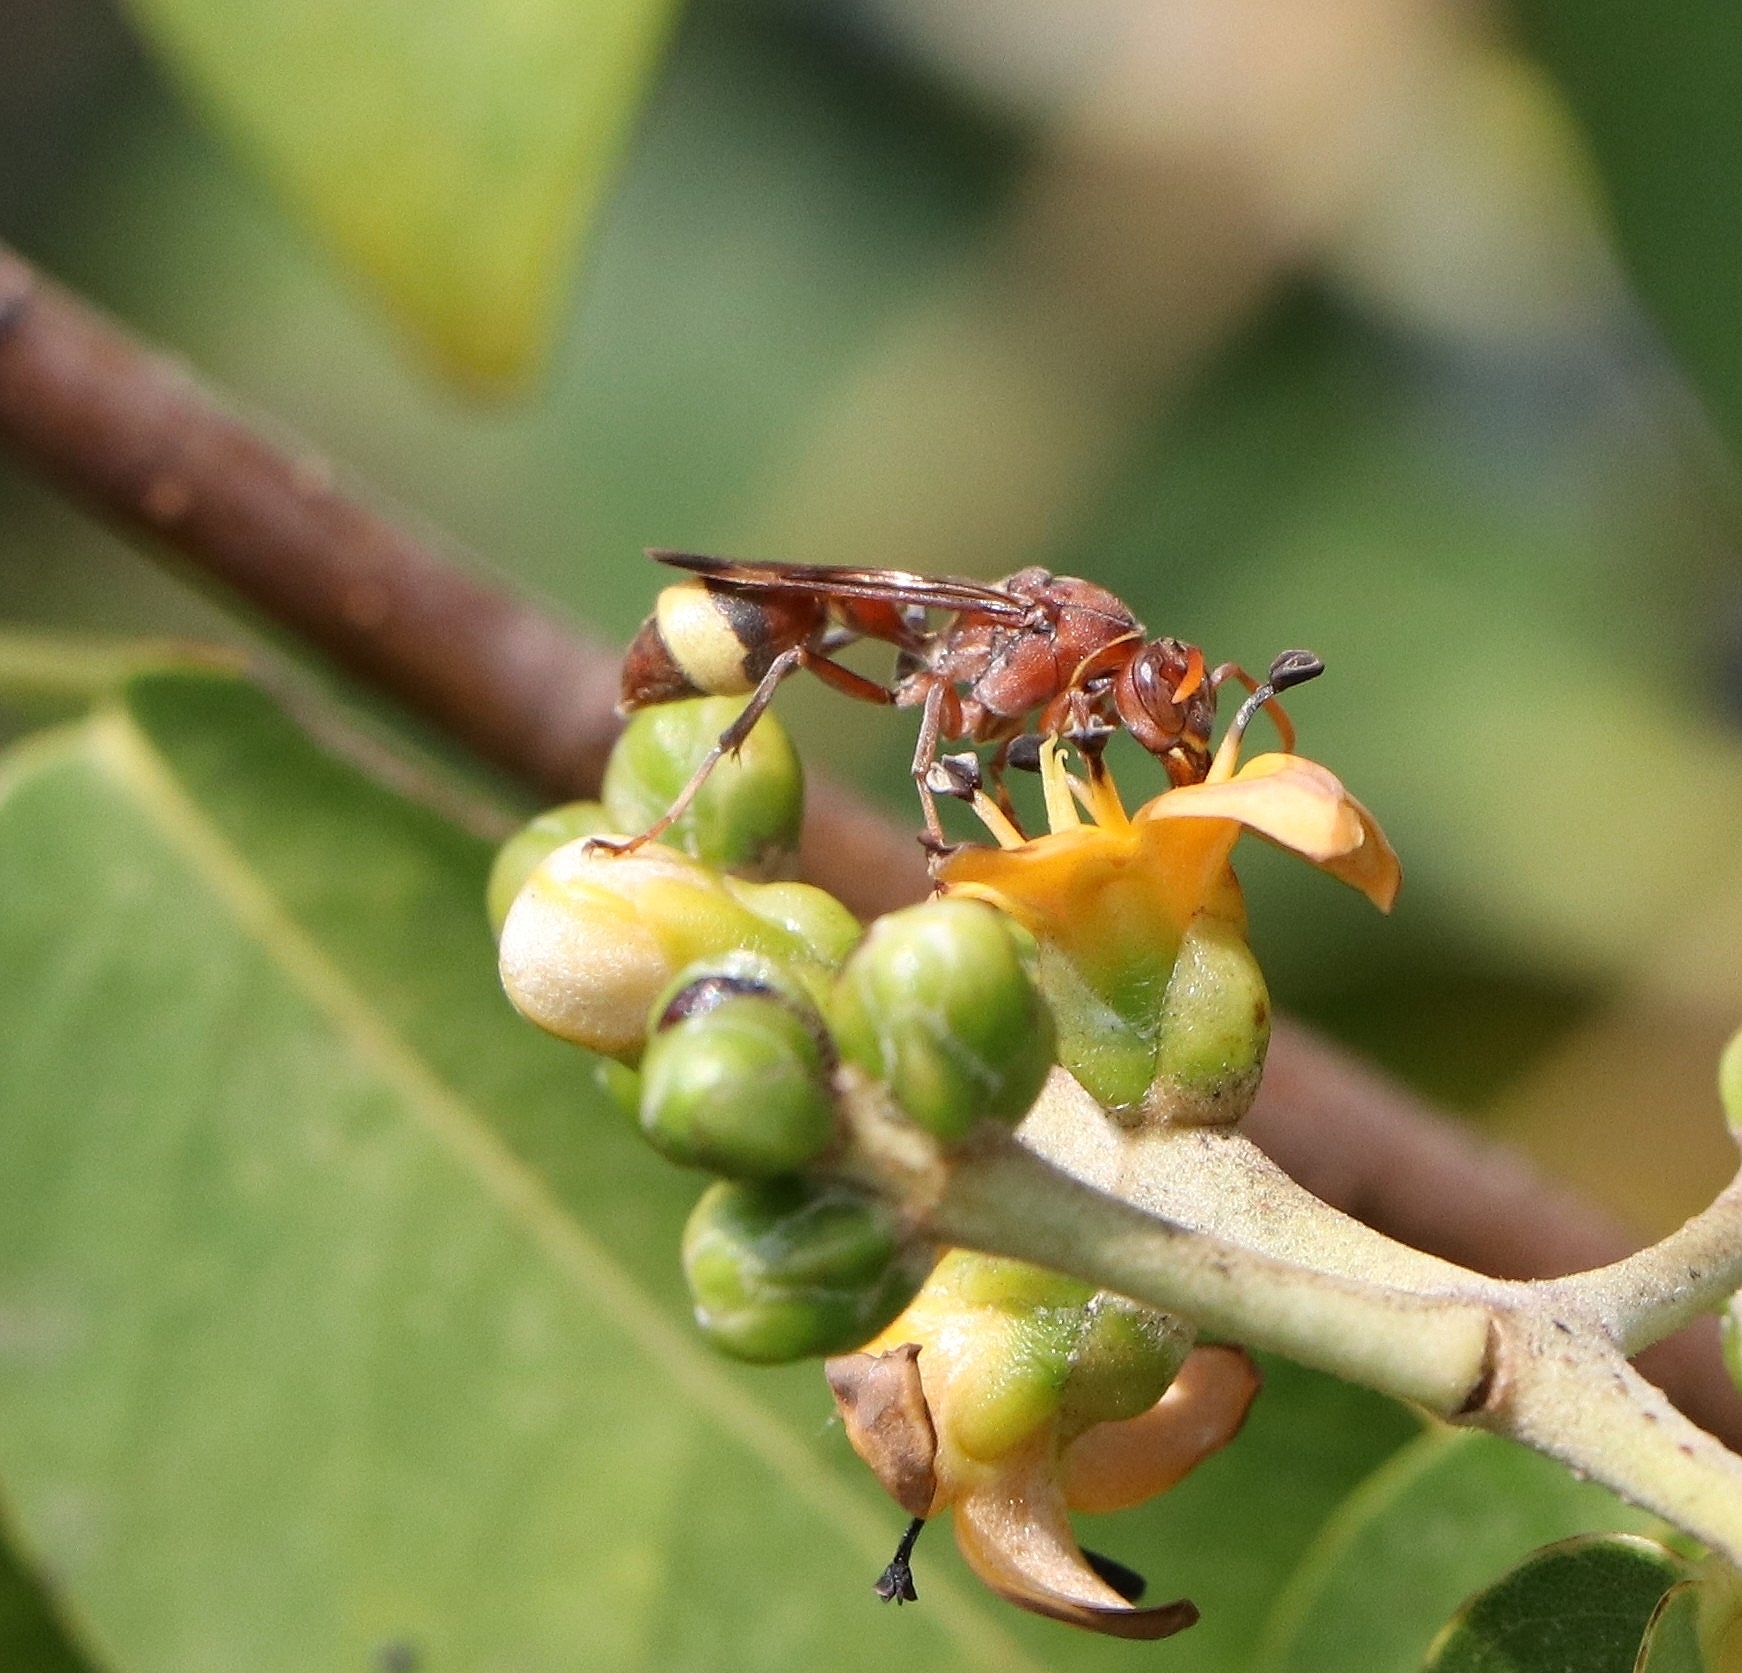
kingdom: Animalia
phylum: Arthropoda
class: Insecta
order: Hymenoptera
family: Vespidae
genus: Ropalidia
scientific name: Ropalidia
